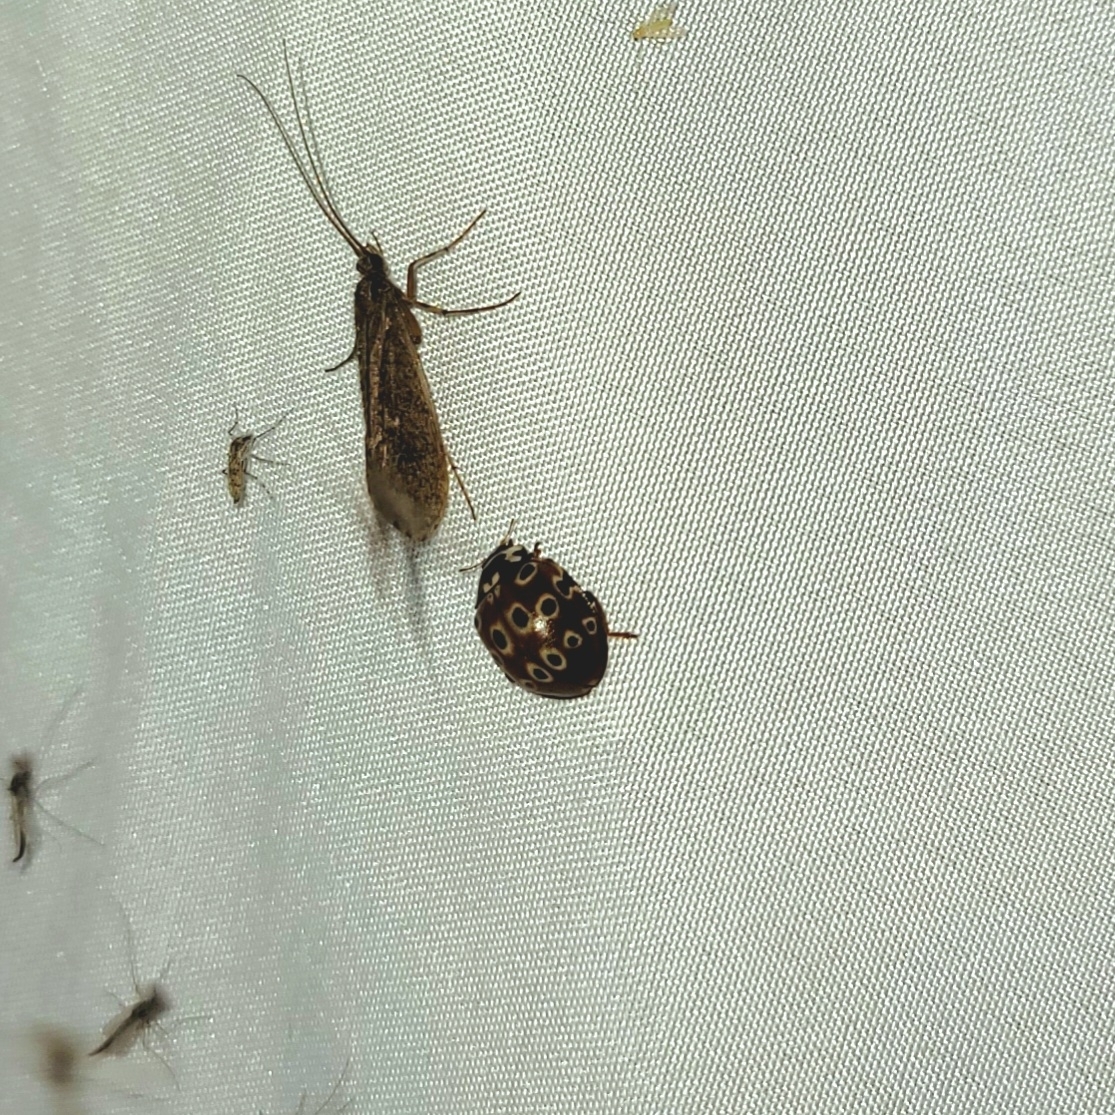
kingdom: Animalia
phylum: Arthropoda
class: Insecta
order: Coleoptera
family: Coccinellidae
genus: Anatis
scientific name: Anatis mali
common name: Eye-spotted lady beetle
